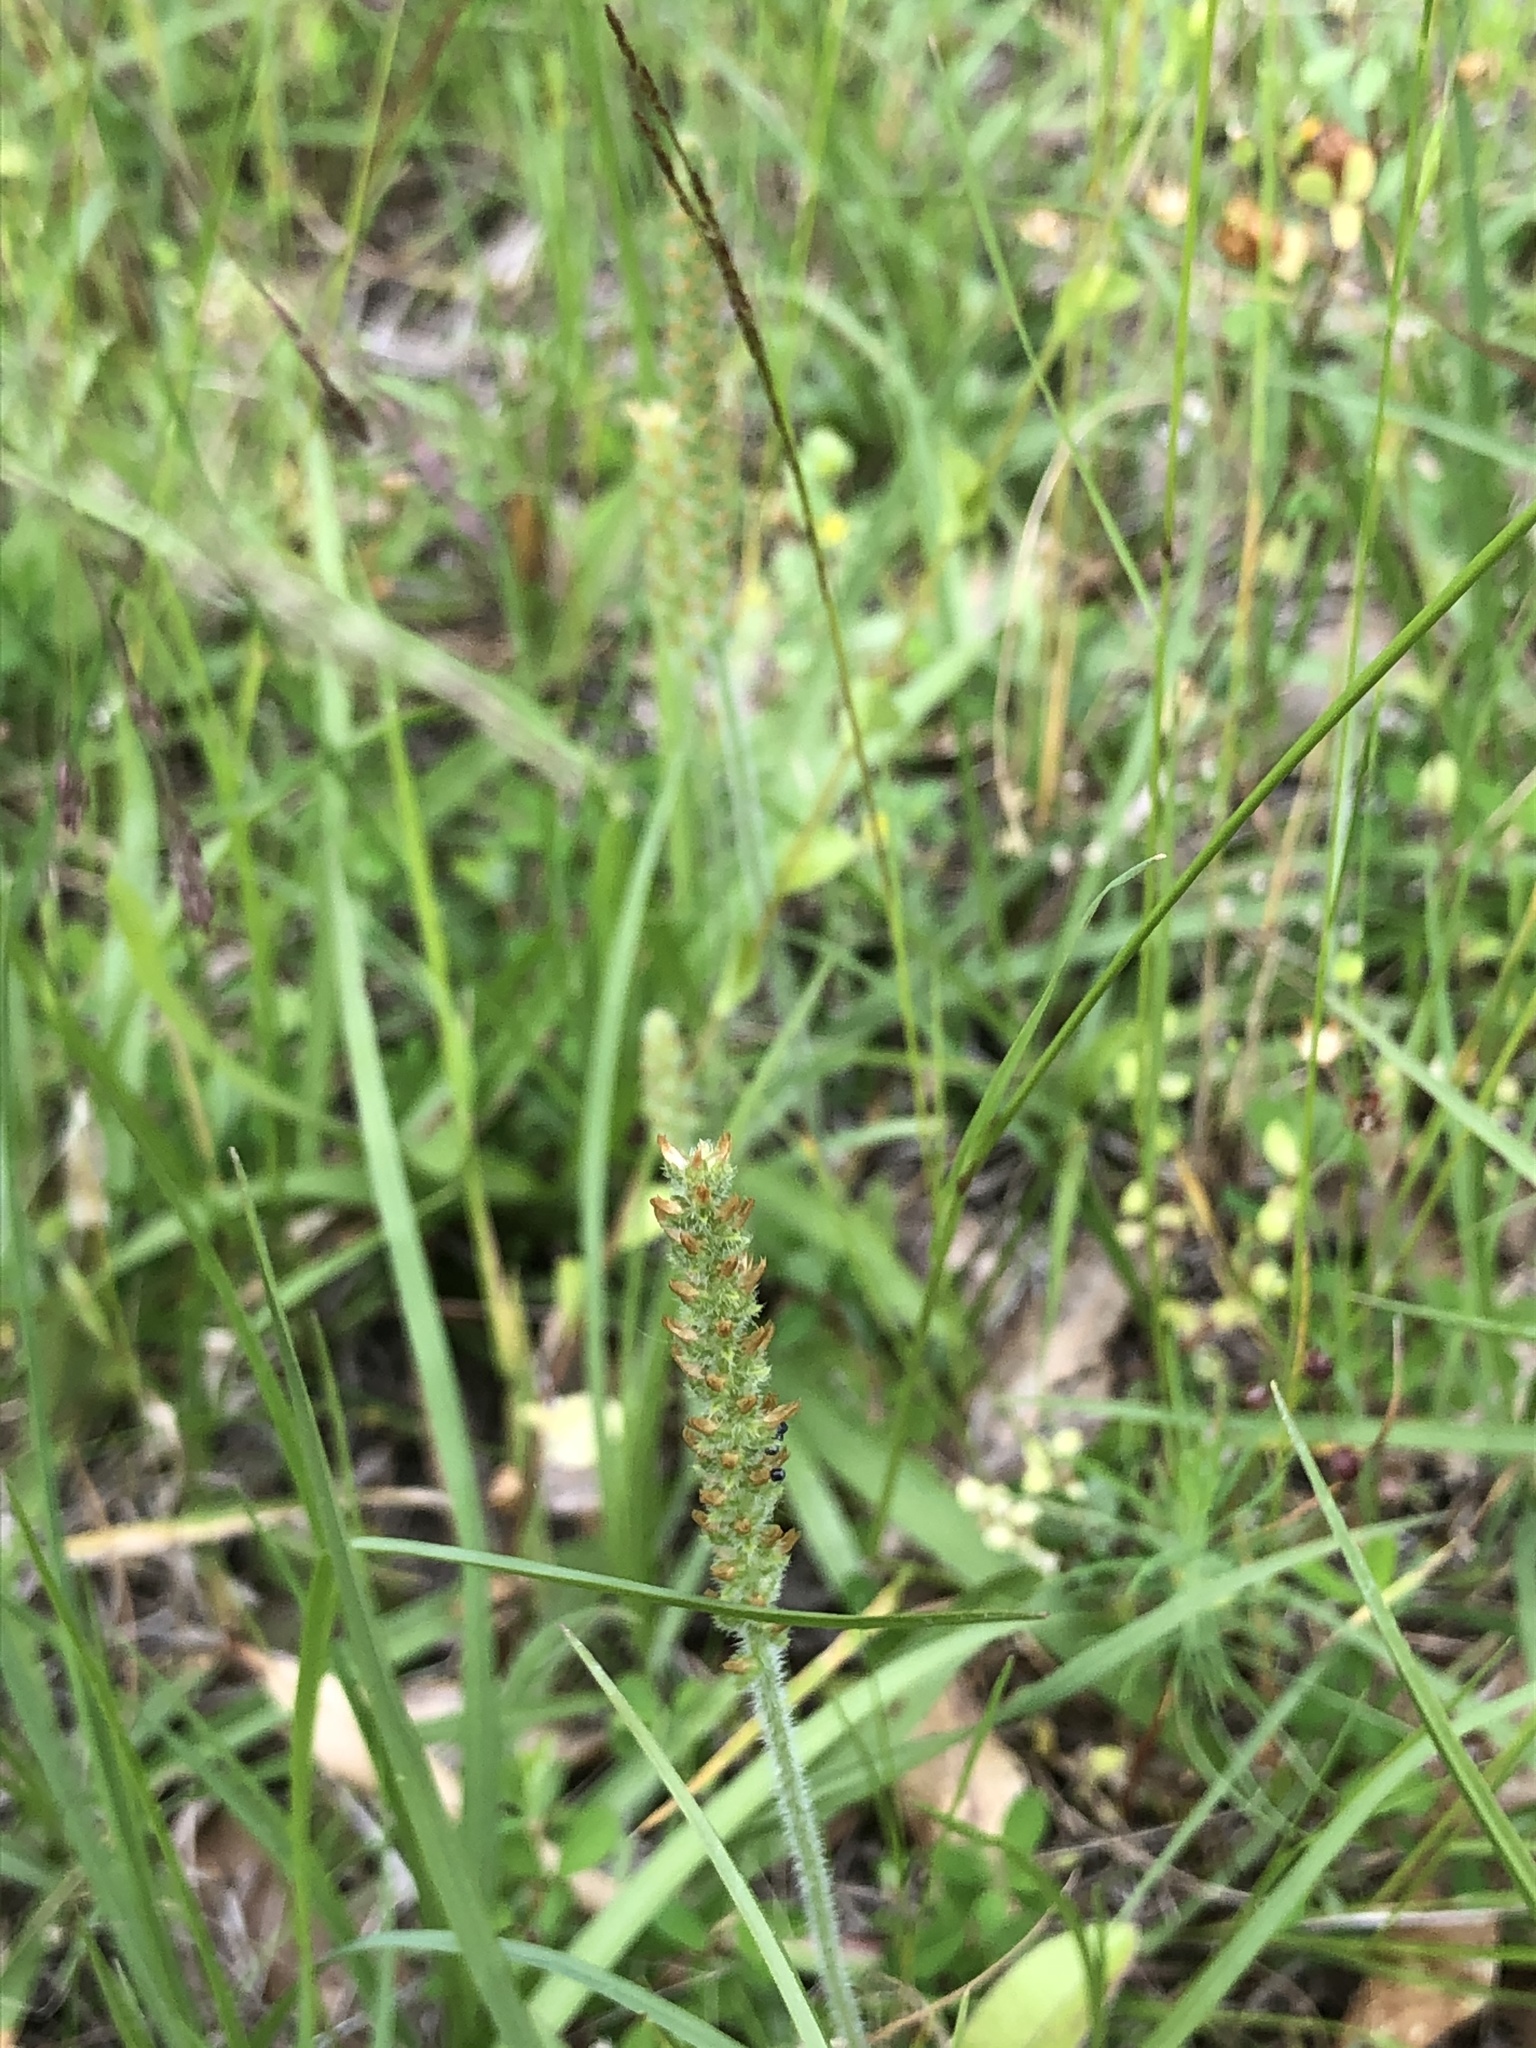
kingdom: Plantae
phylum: Tracheophyta
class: Magnoliopsida
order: Lamiales
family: Plantaginaceae
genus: Plantago
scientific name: Plantago virginica
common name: Hoary plantain
